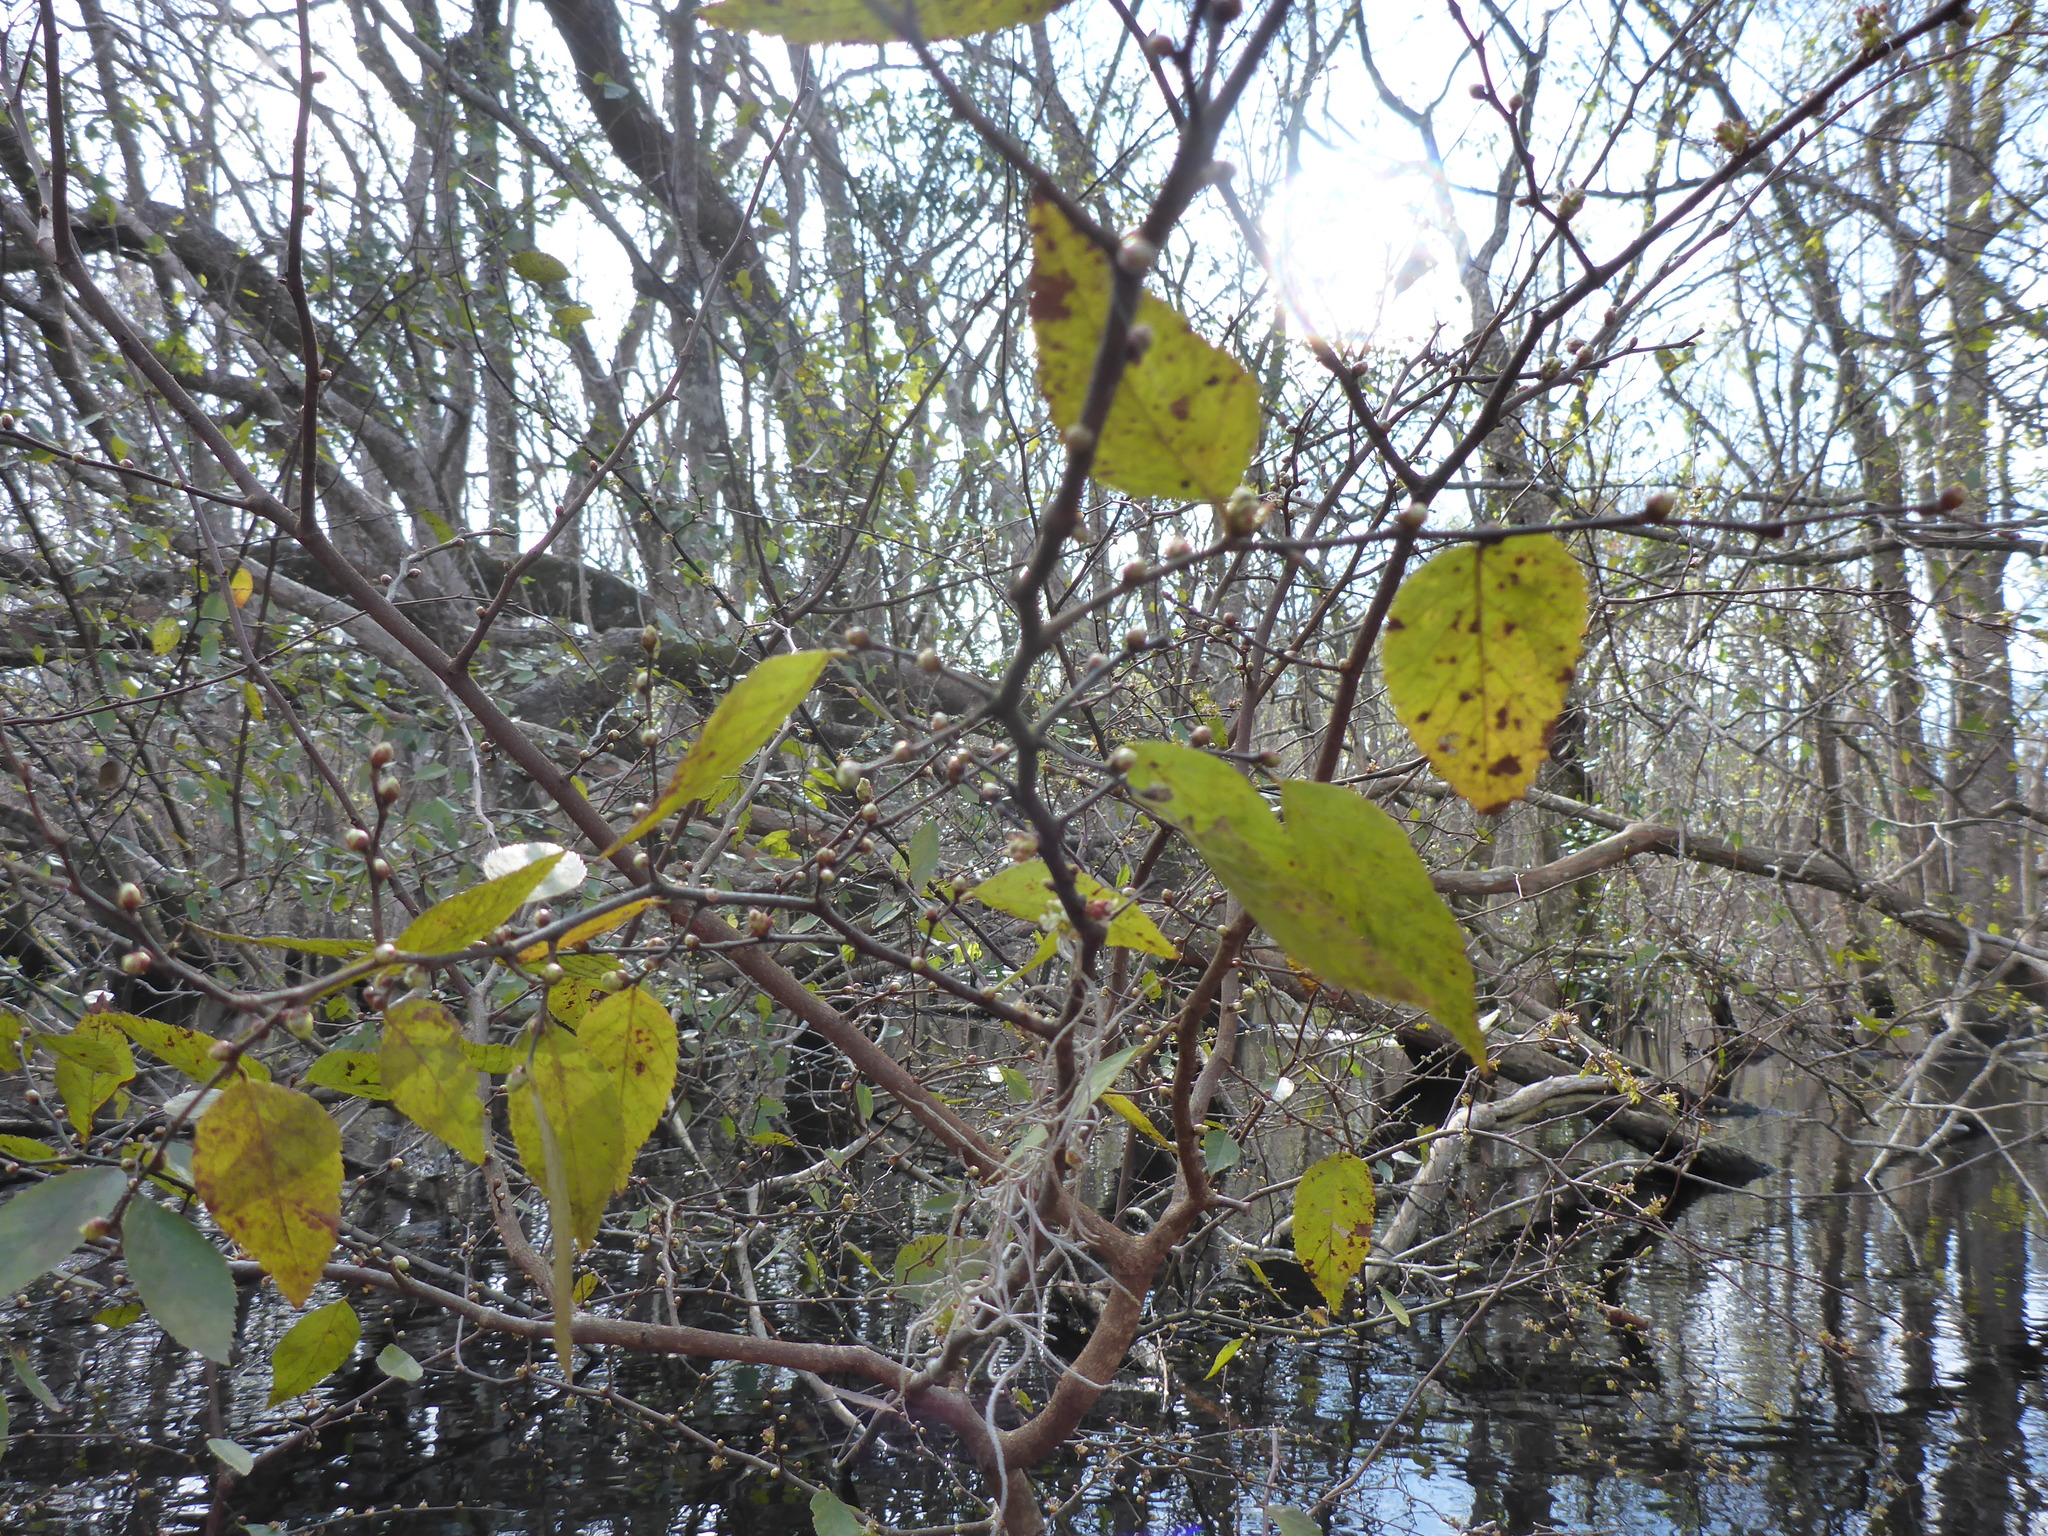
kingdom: Plantae
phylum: Tracheophyta
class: Magnoliopsida
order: Rosales
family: Ulmaceae
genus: Planera
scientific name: Planera aquatica
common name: Water-elm
